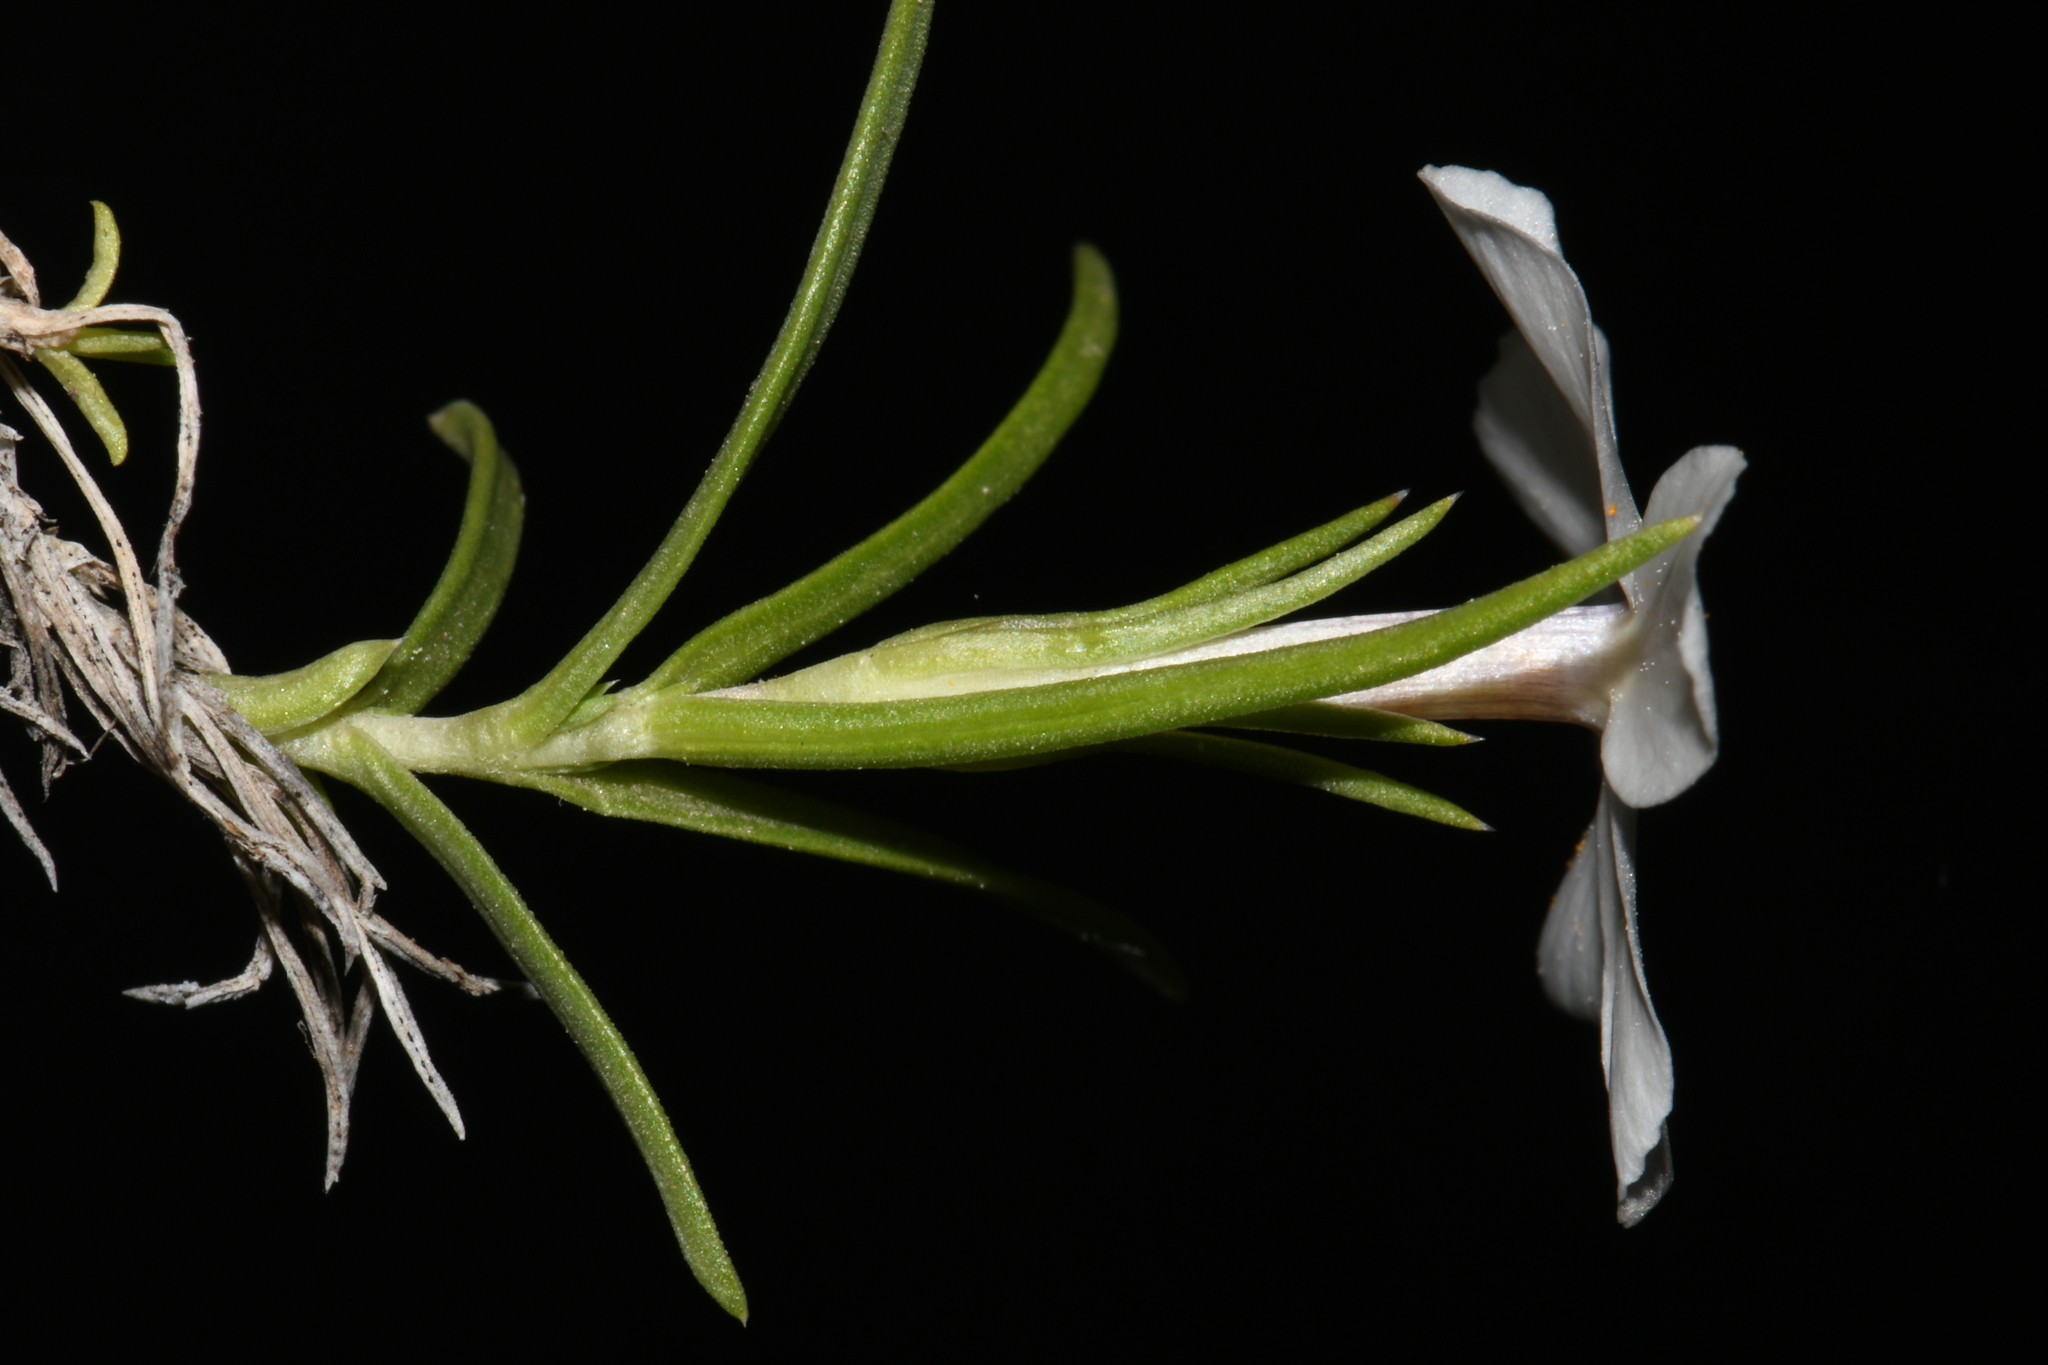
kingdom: Plantae
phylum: Tracheophyta
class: Magnoliopsida
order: Ericales
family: Polemoniaceae
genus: Phlox
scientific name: Phlox multiflora
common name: Rocky mountain phlox
